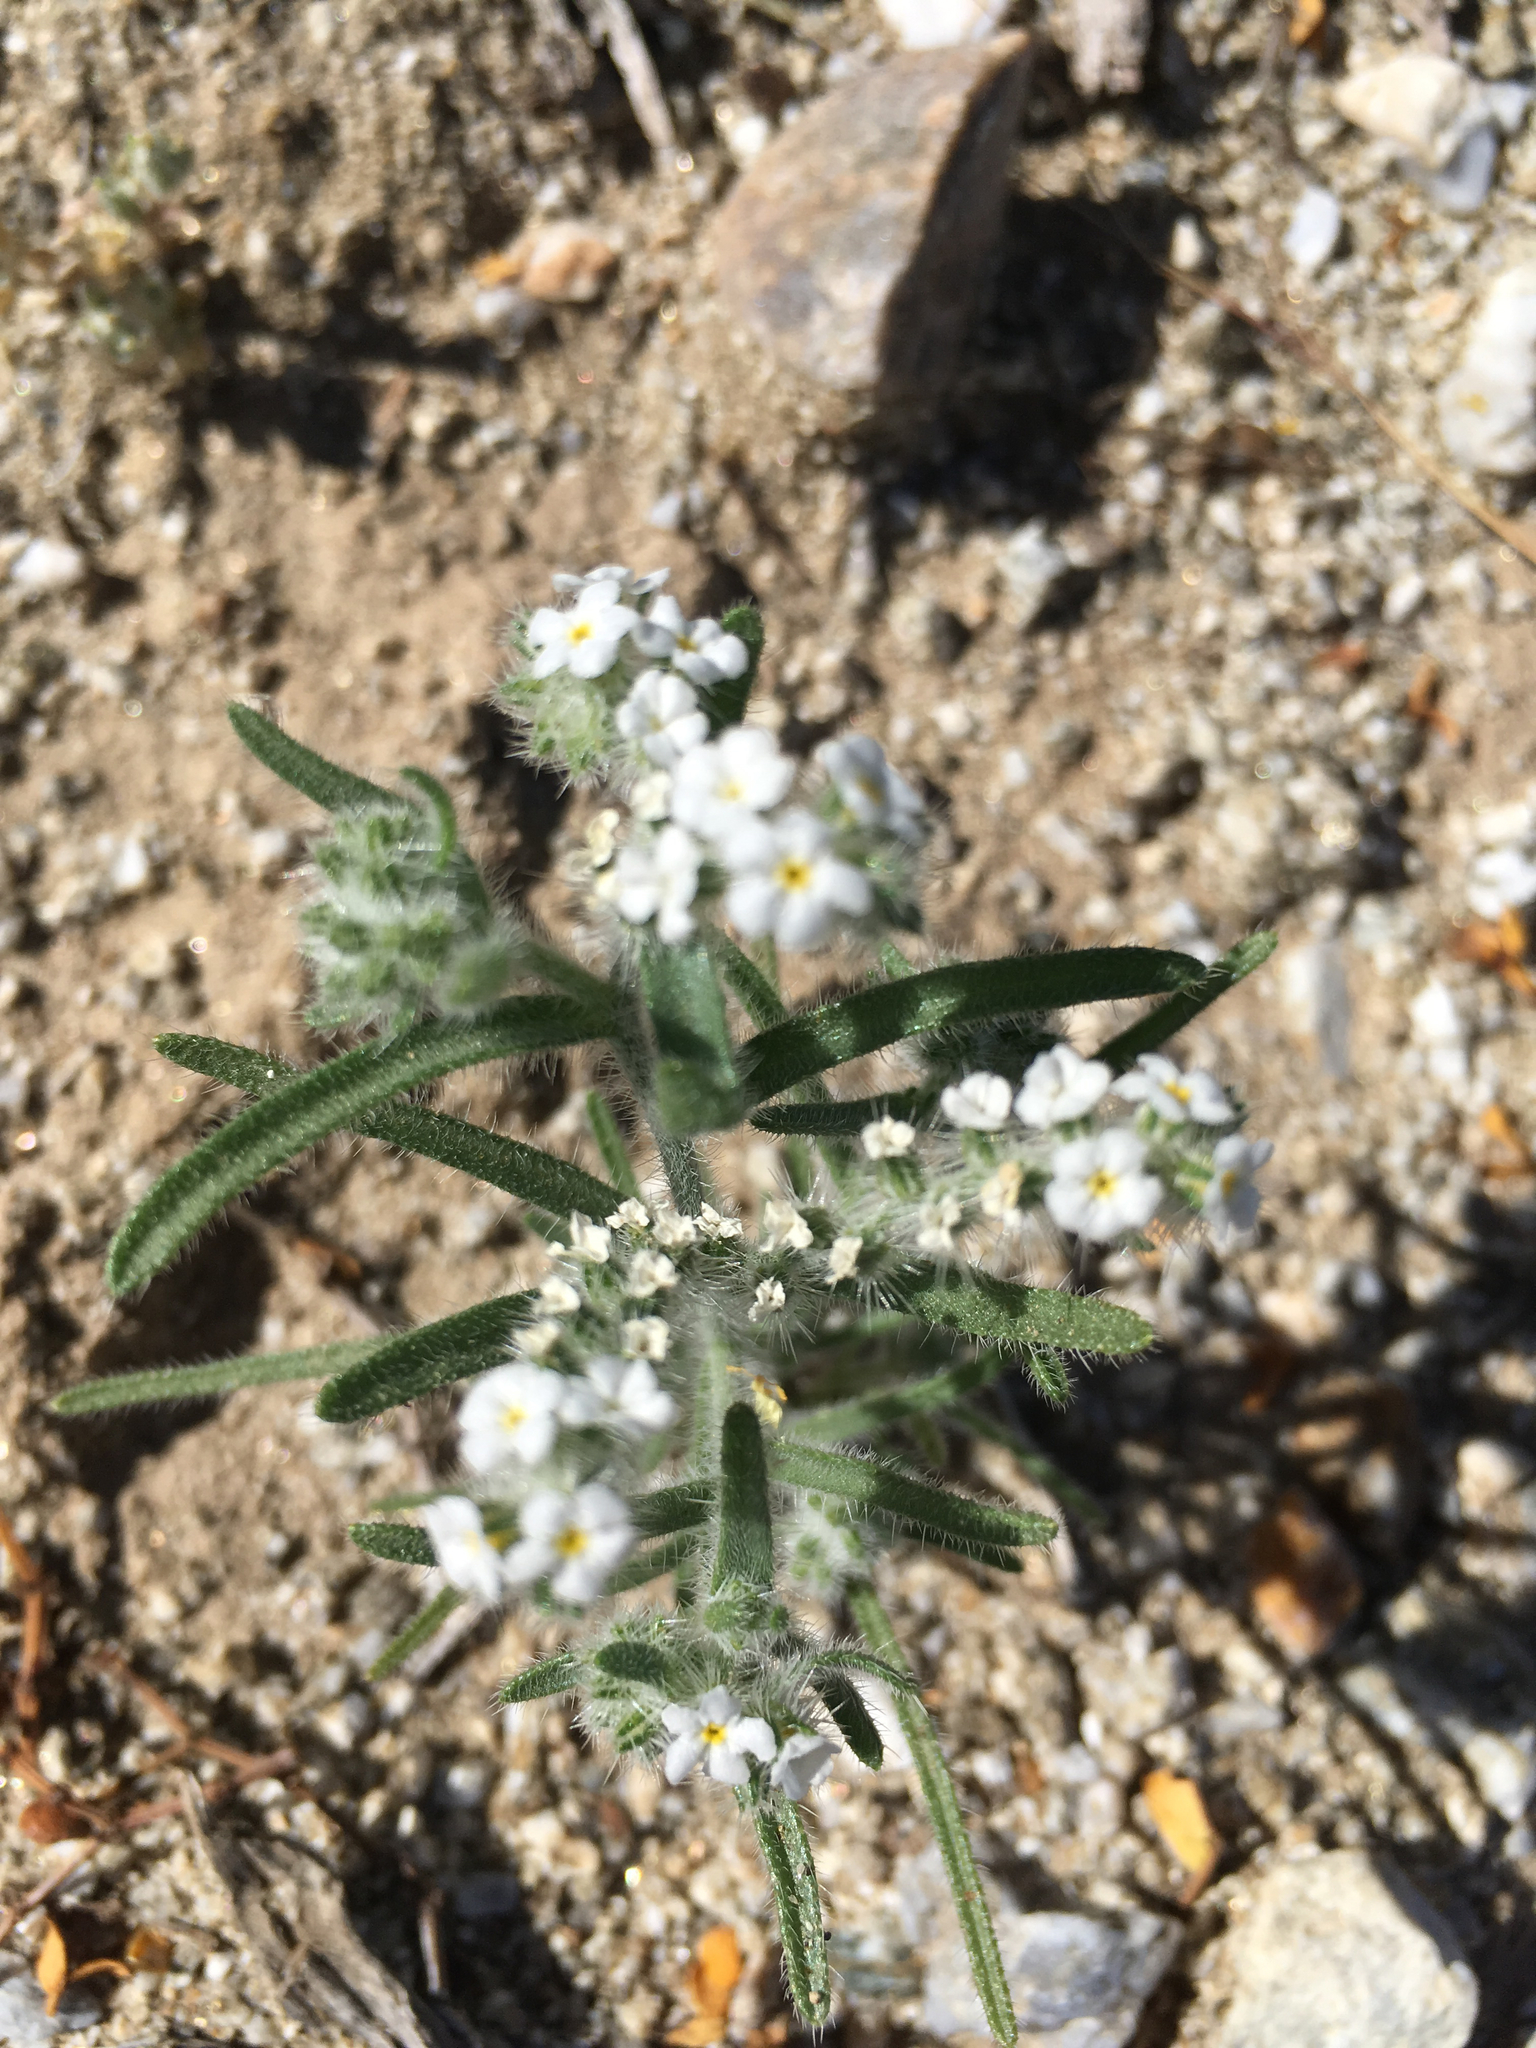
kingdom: Plantae
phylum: Tracheophyta
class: Magnoliopsida
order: Boraginales
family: Boraginaceae
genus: Johnstonella
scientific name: Johnstonella angustifolia
